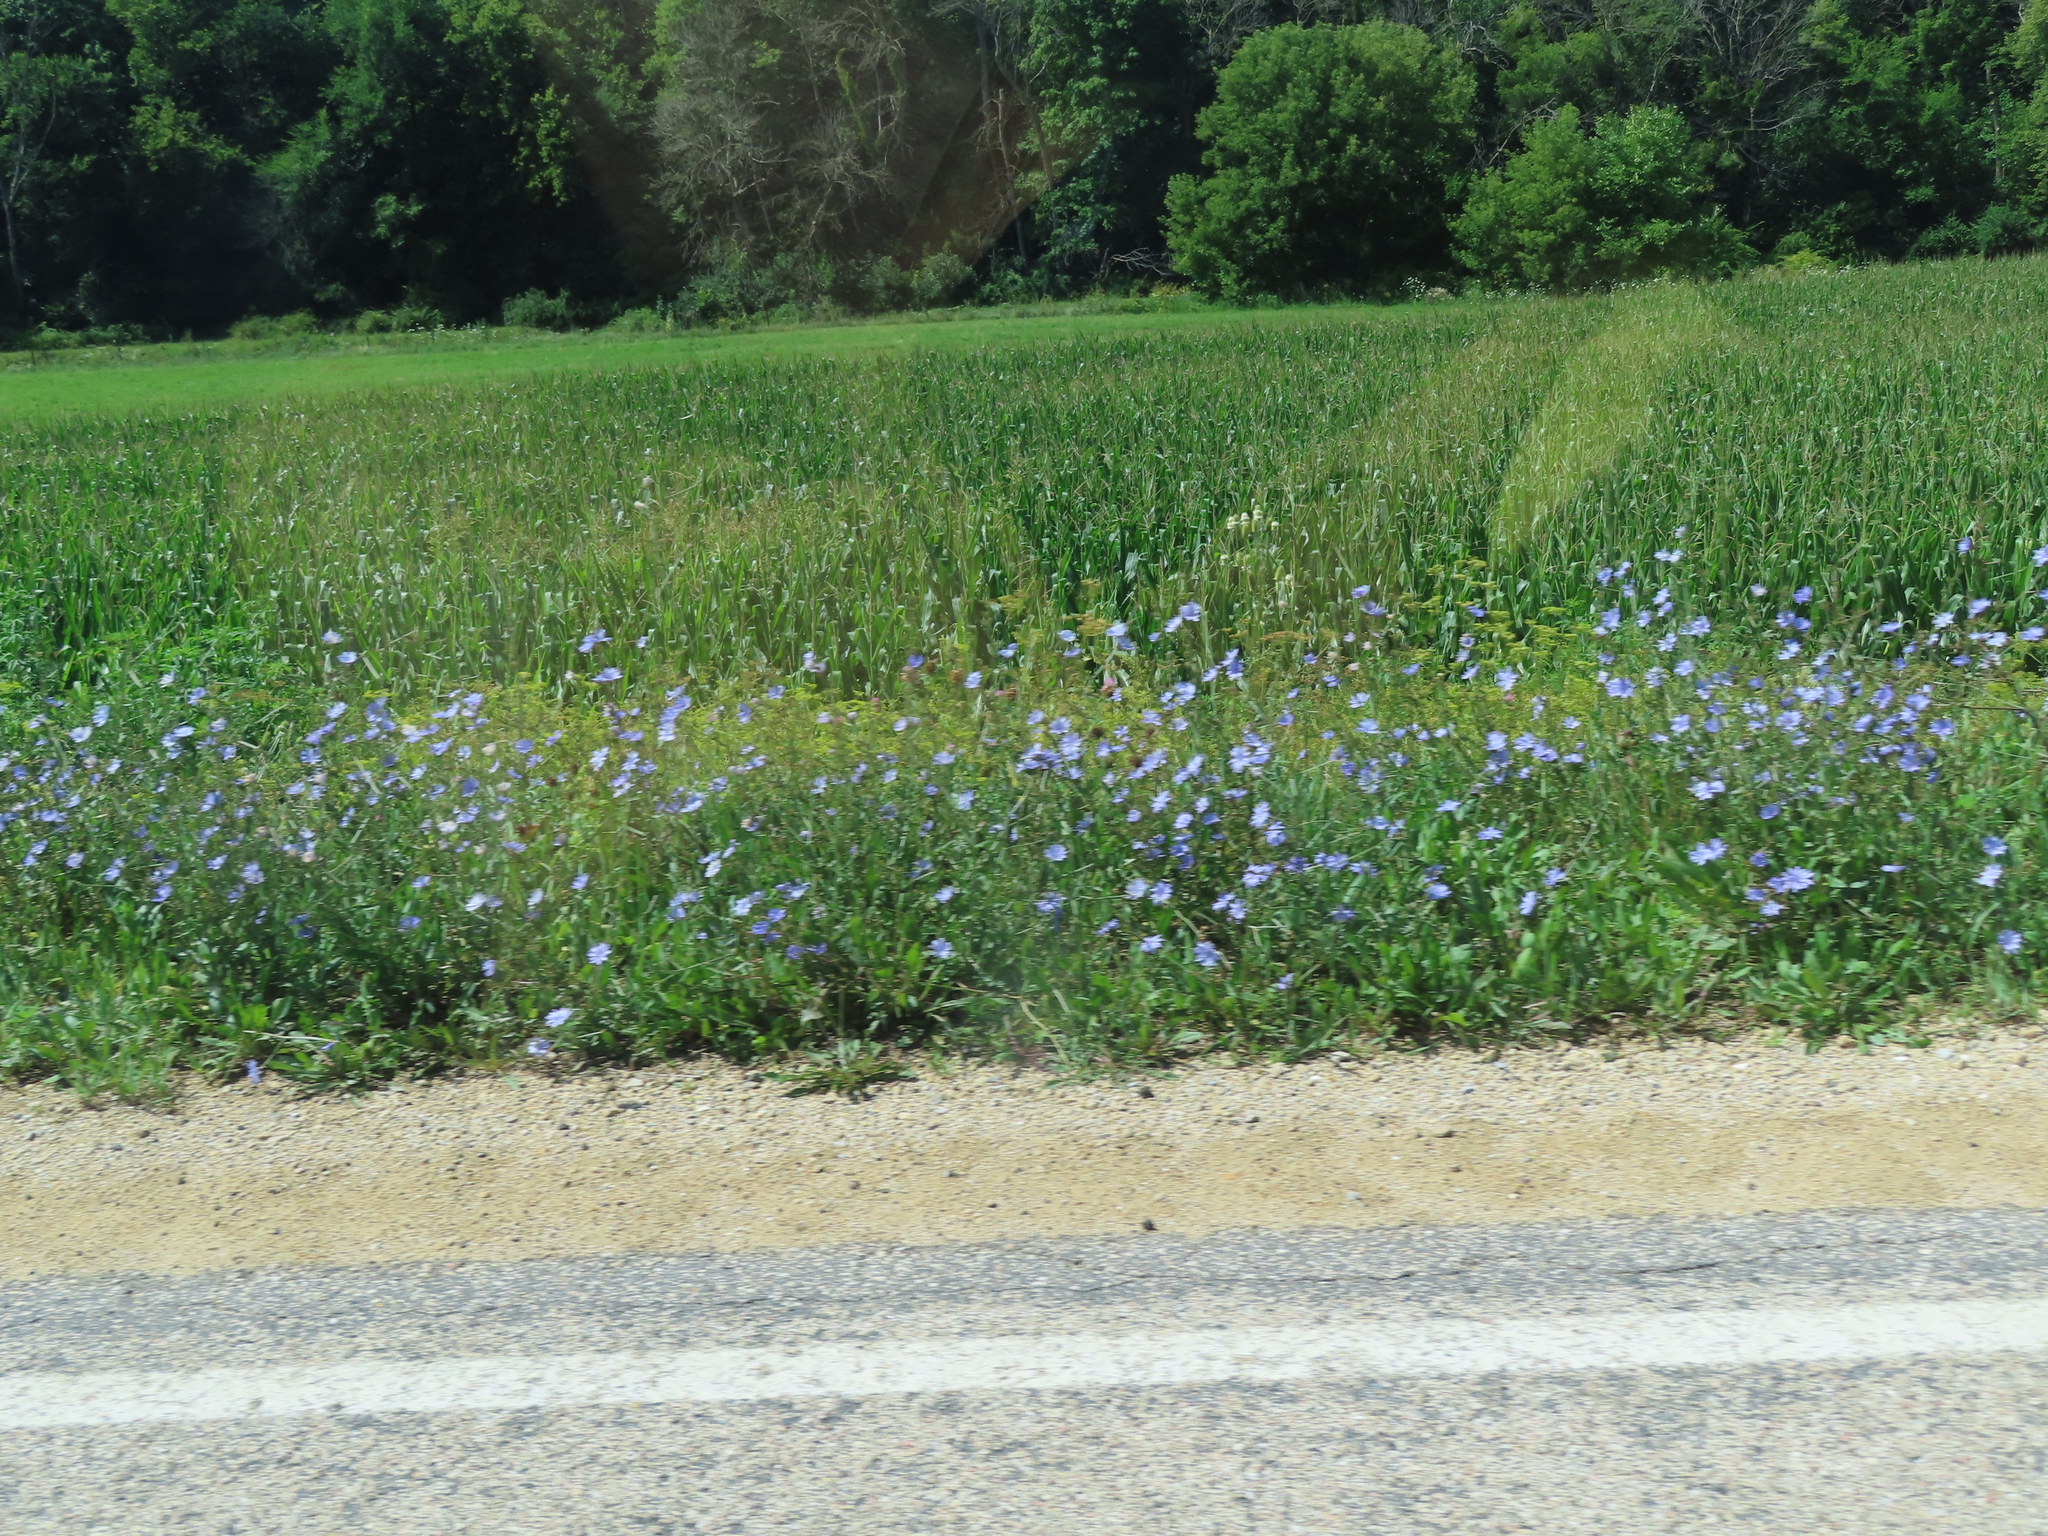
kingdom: Plantae
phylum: Tracheophyta
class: Magnoliopsida
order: Asterales
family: Asteraceae
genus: Cichorium
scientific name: Cichorium intybus
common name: Chicory
